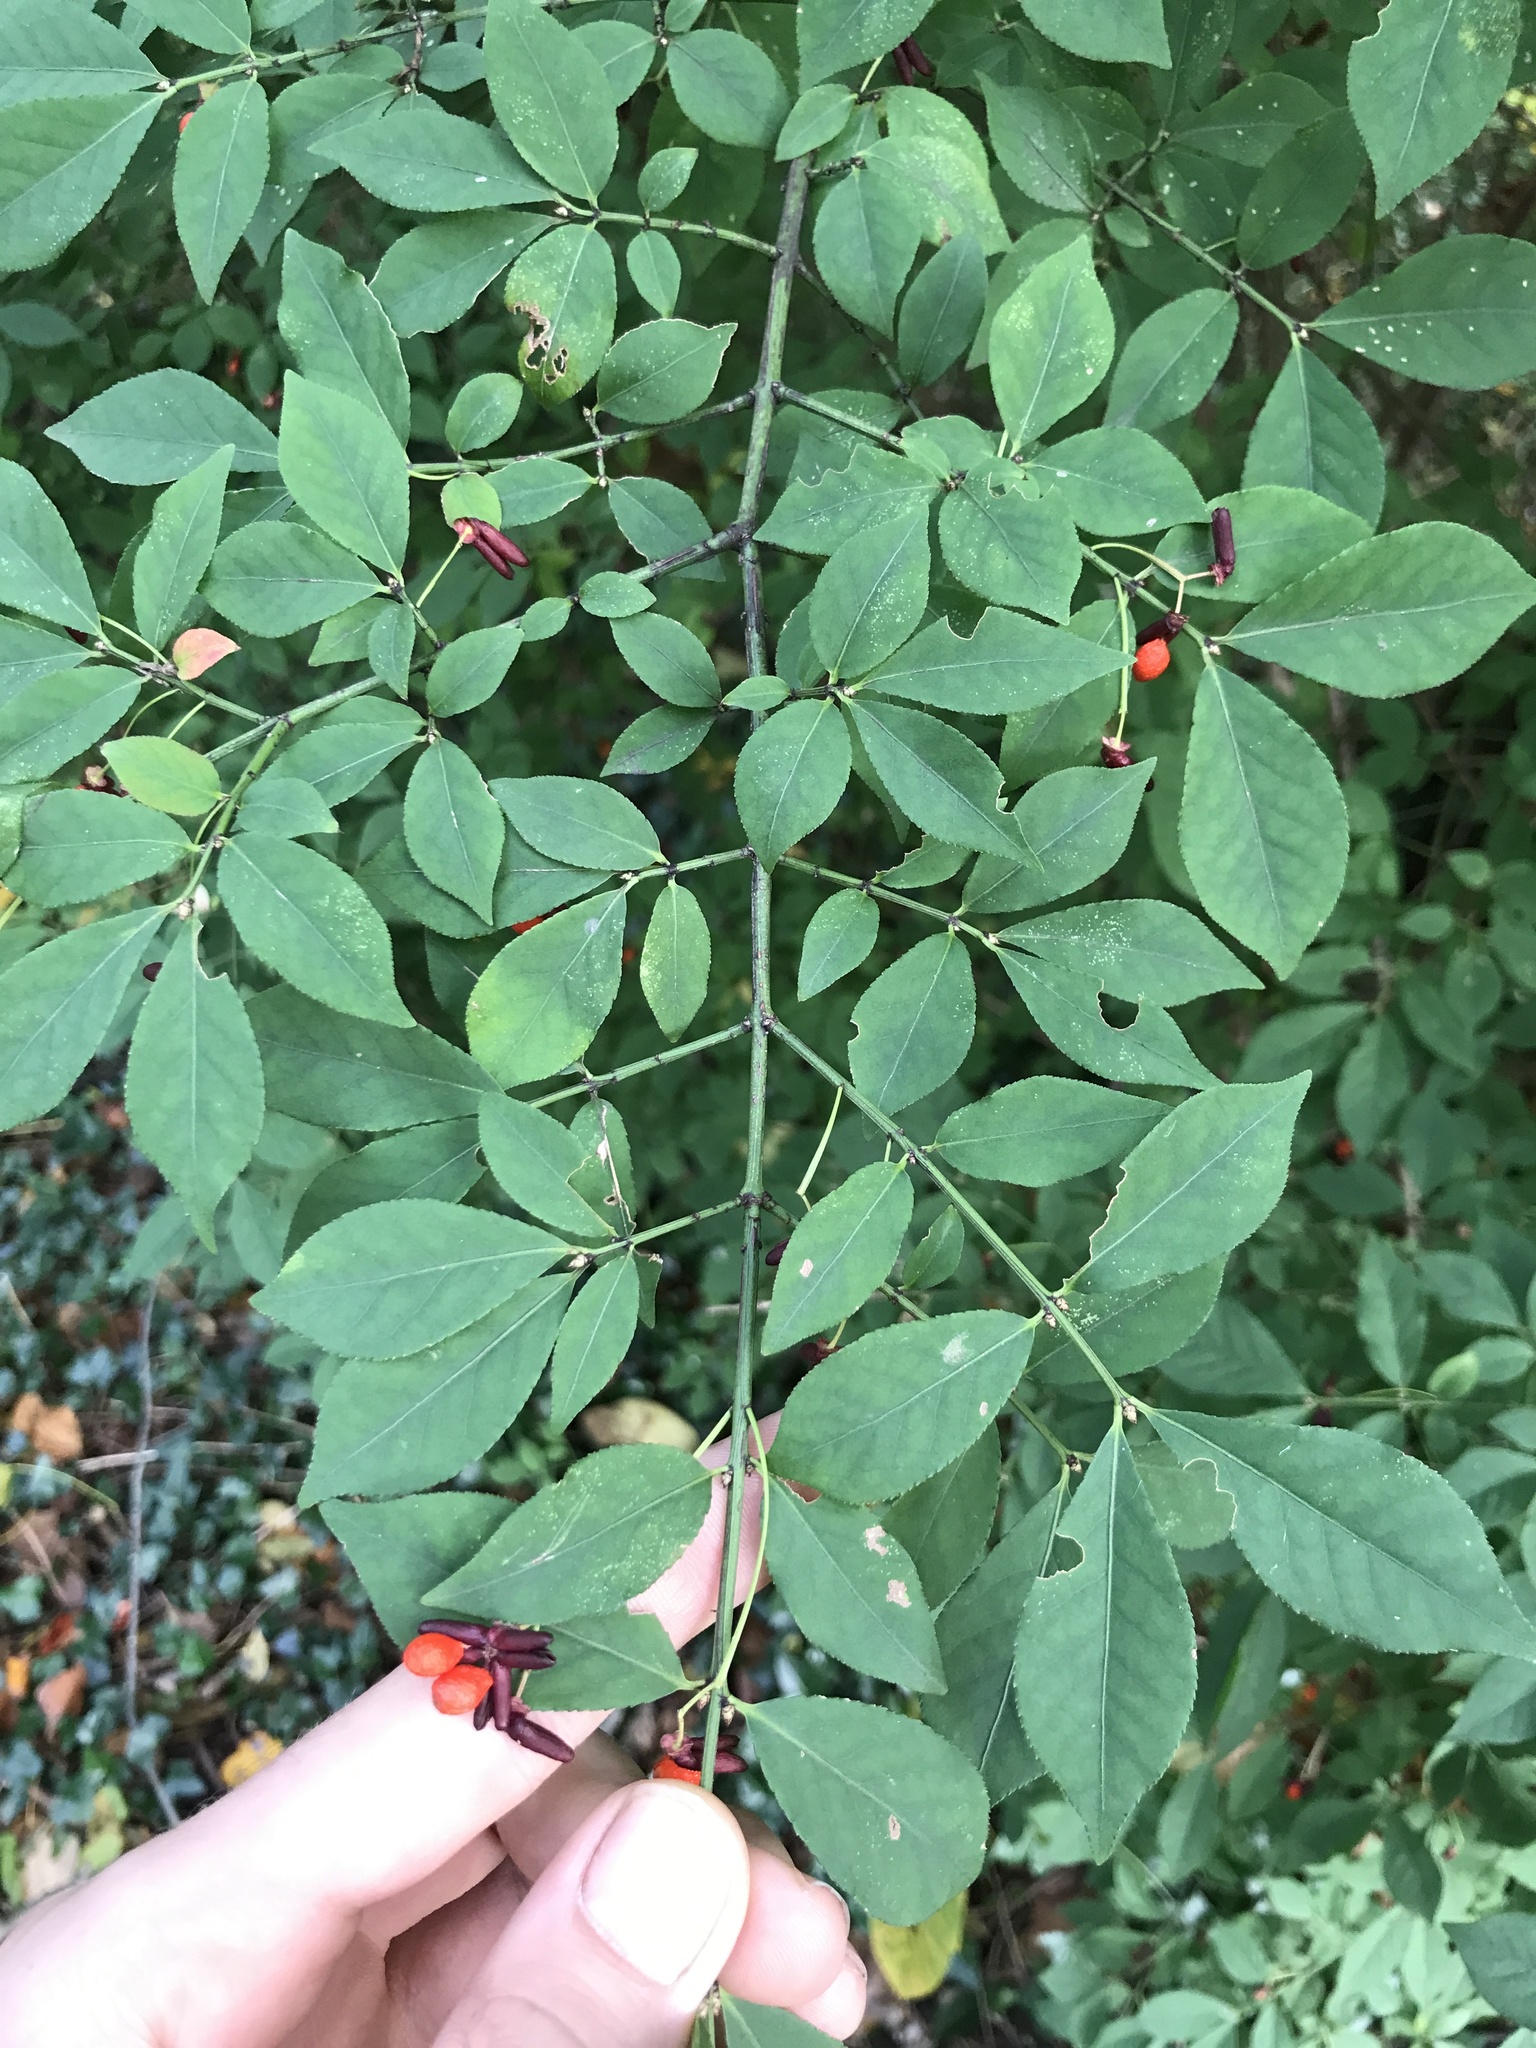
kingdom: Plantae
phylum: Tracheophyta
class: Magnoliopsida
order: Celastrales
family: Celastraceae
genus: Euonymus
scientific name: Euonymus alatus
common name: Winged euonymus
